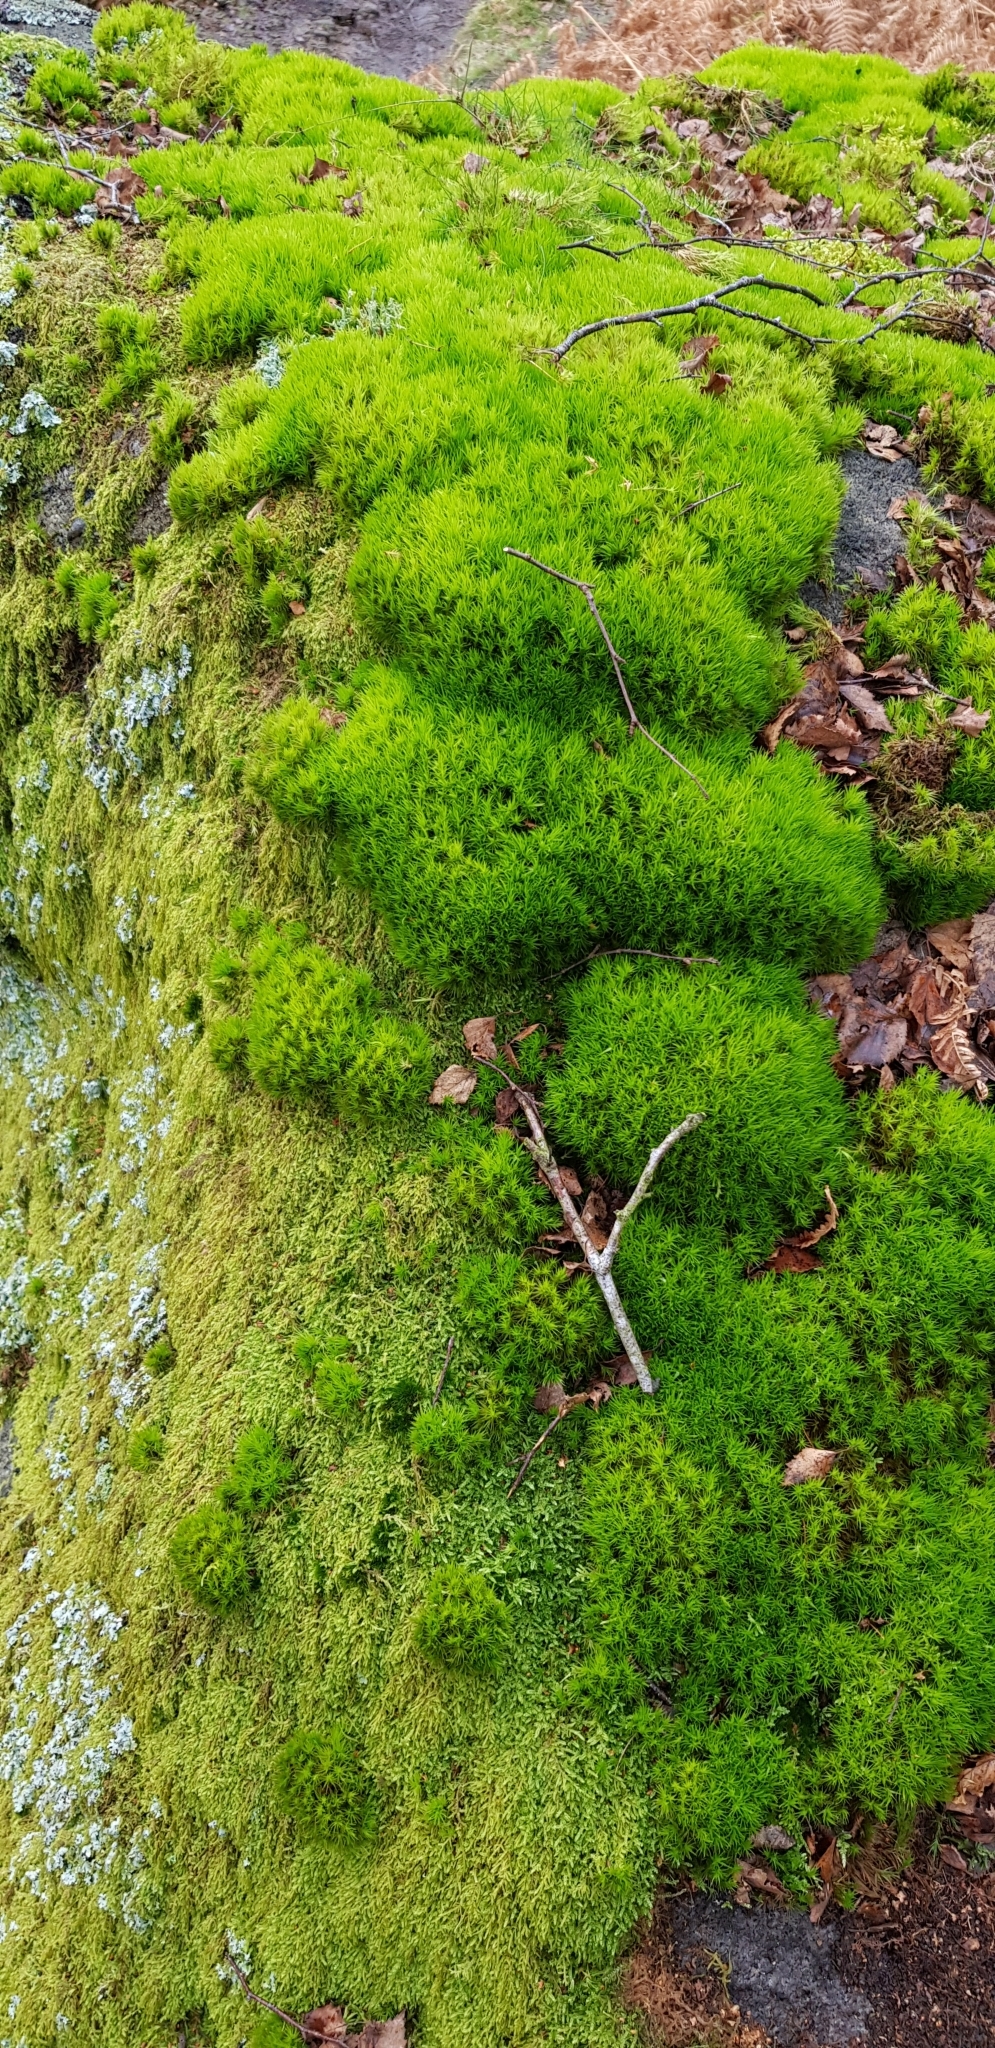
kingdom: Plantae
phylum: Bryophyta
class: Bryopsida
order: Dicranales
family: Dicranaceae
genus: Dicranum
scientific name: Dicranum scoparium
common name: Broom fork-moss
